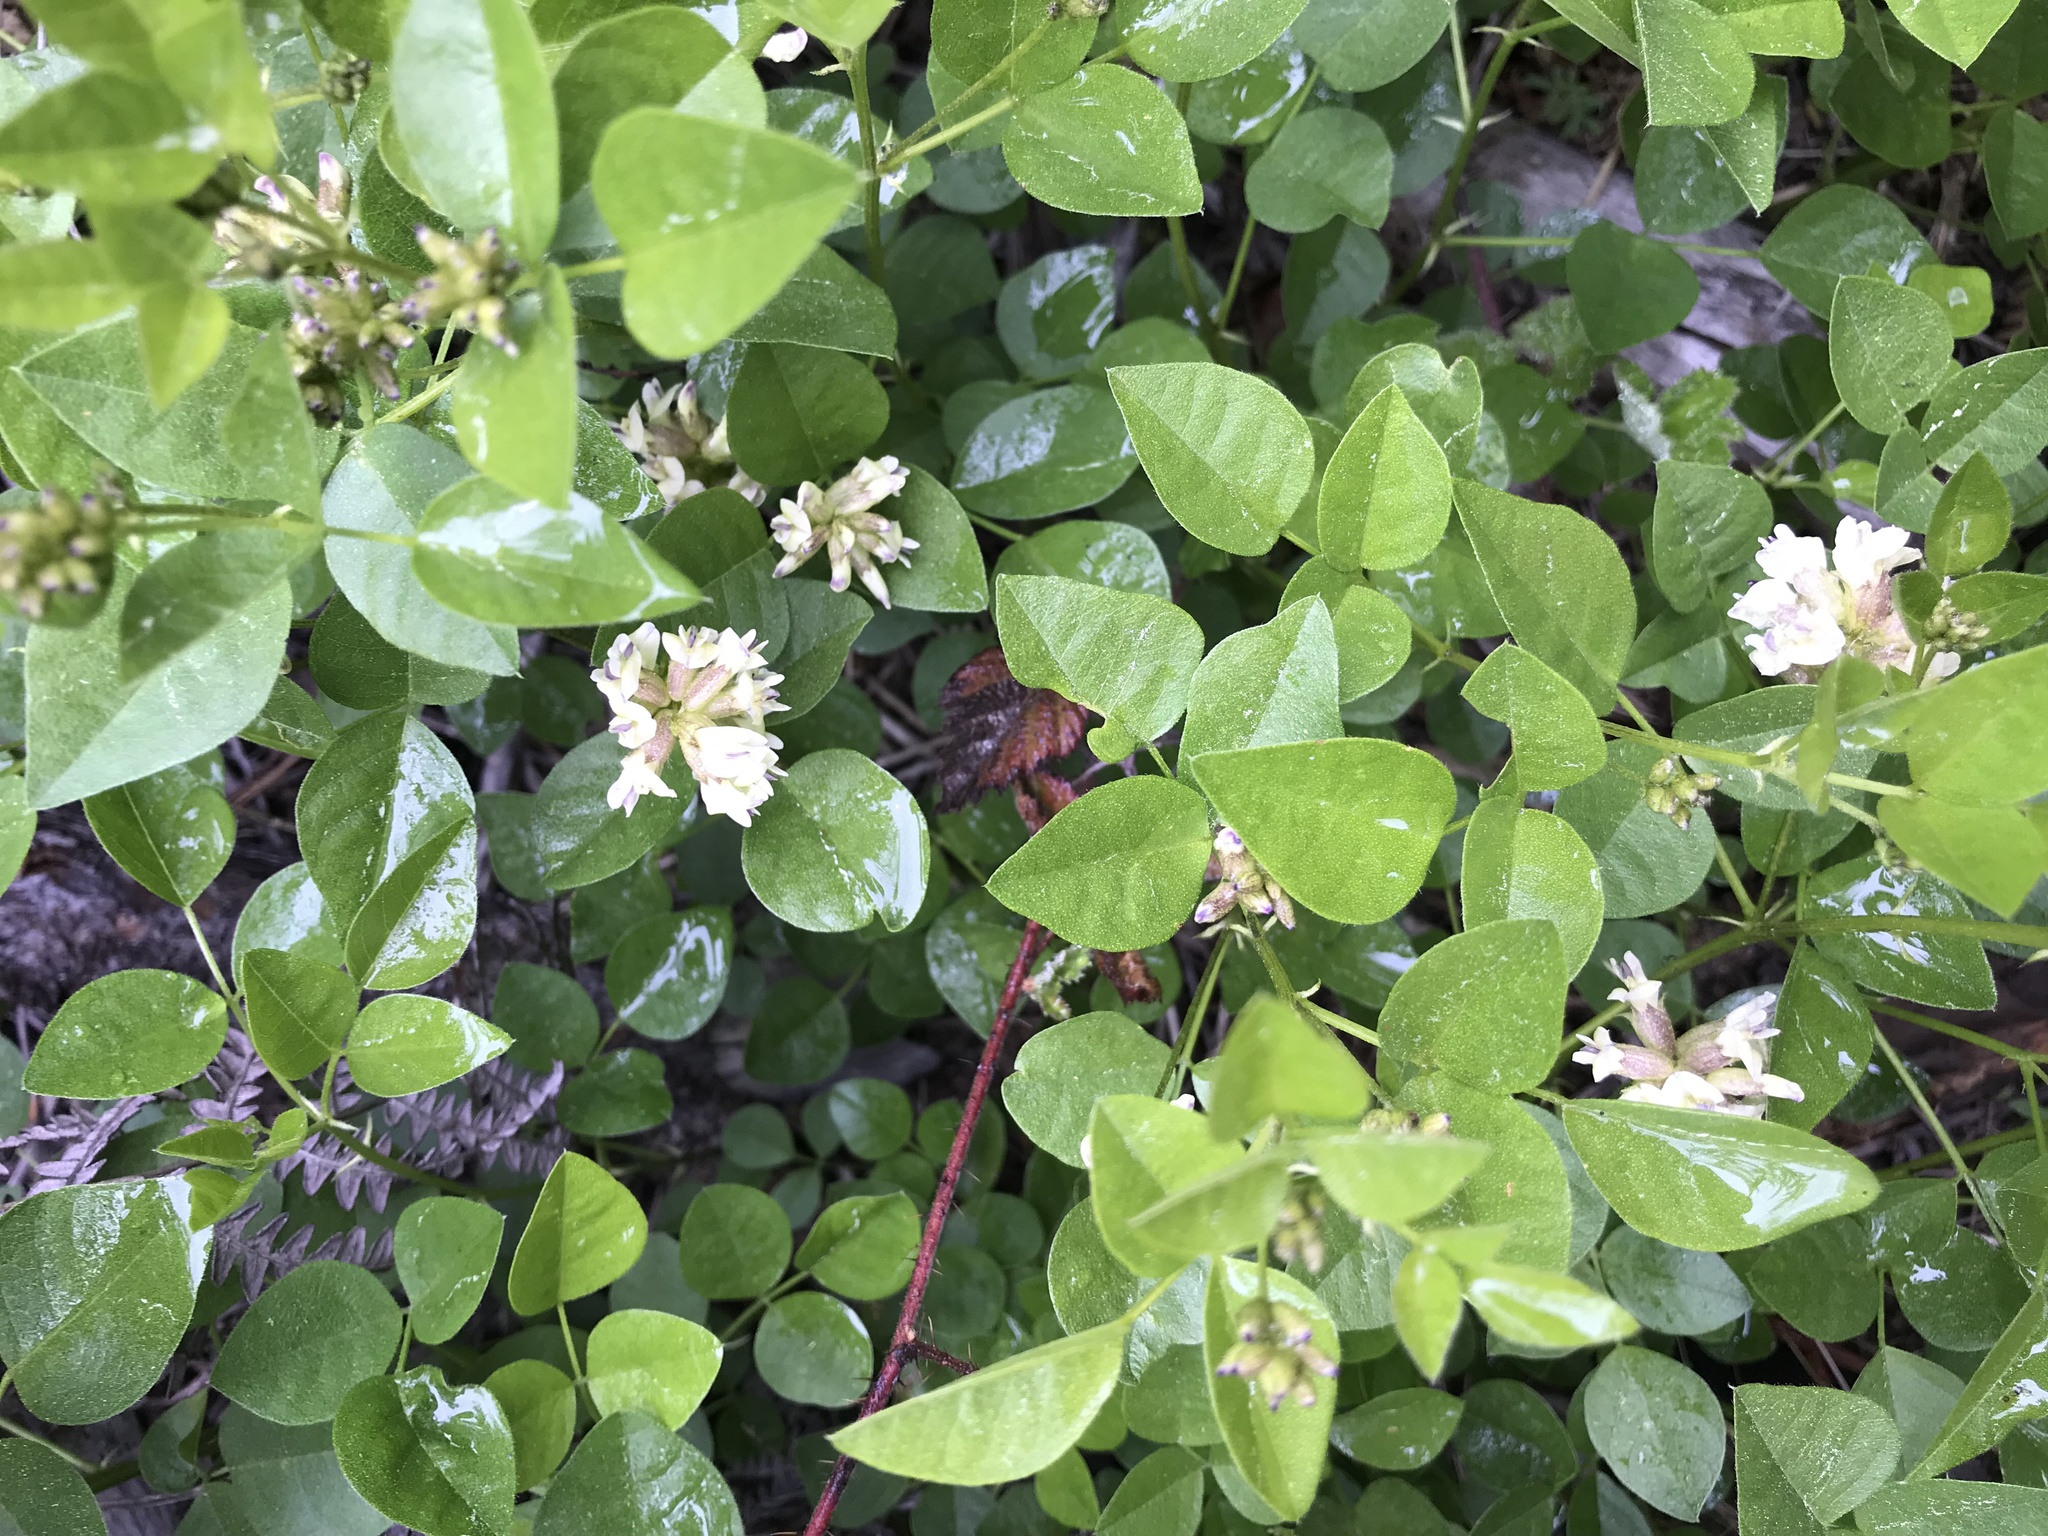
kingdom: Plantae
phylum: Tracheophyta
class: Magnoliopsida
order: Fabales
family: Fabaceae
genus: Rupertia
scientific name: Rupertia physodes
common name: California-tea
